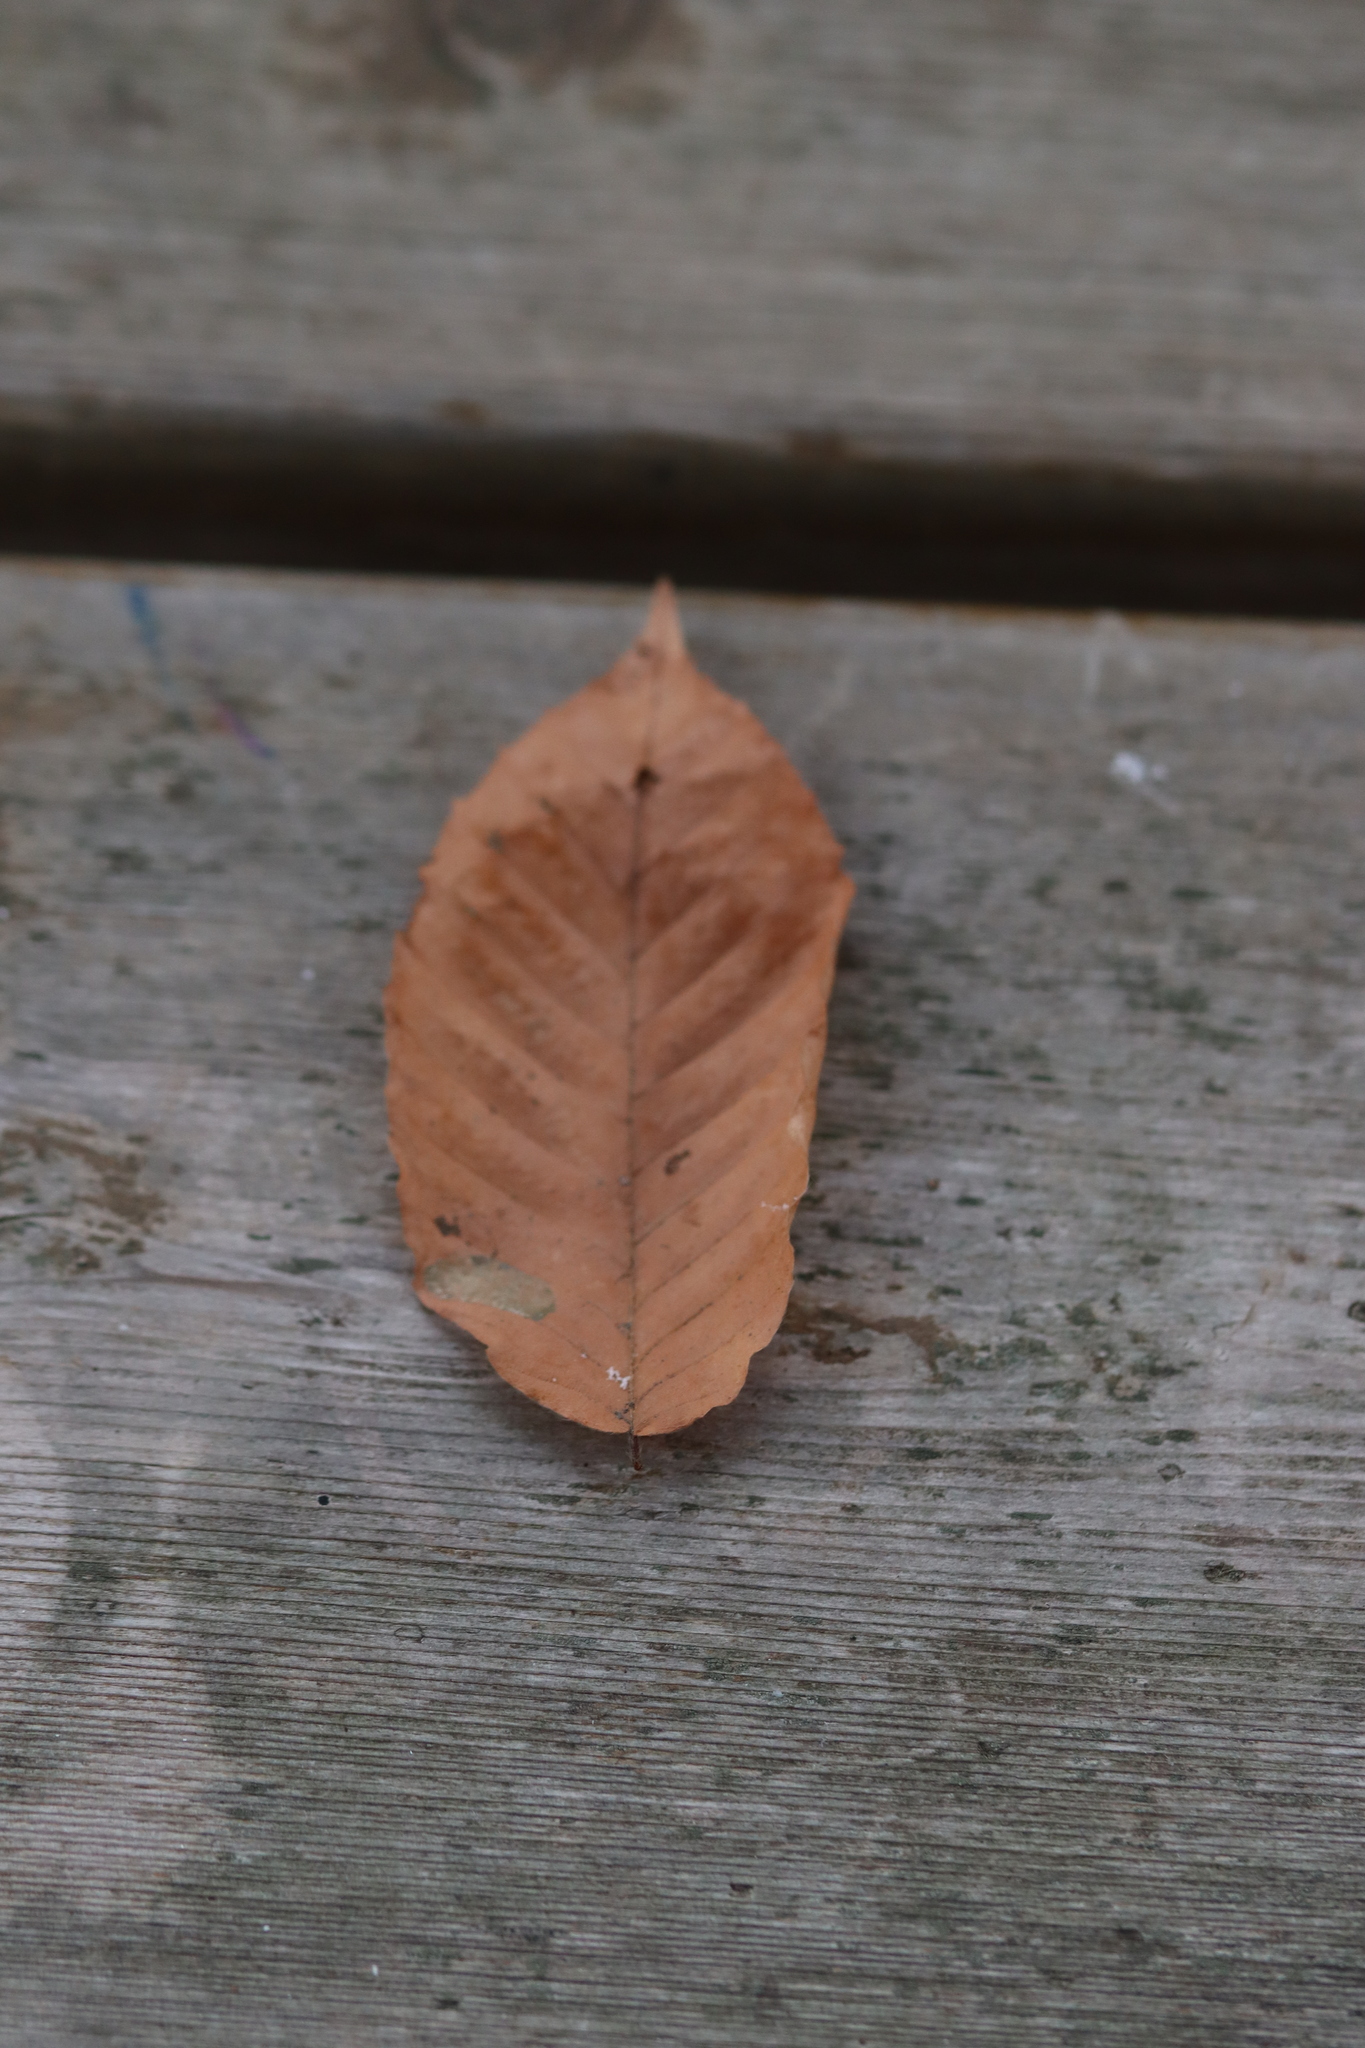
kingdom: Plantae
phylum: Tracheophyta
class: Magnoliopsida
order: Fagales
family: Fagaceae
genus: Fagus
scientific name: Fagus grandifolia
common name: American beech
